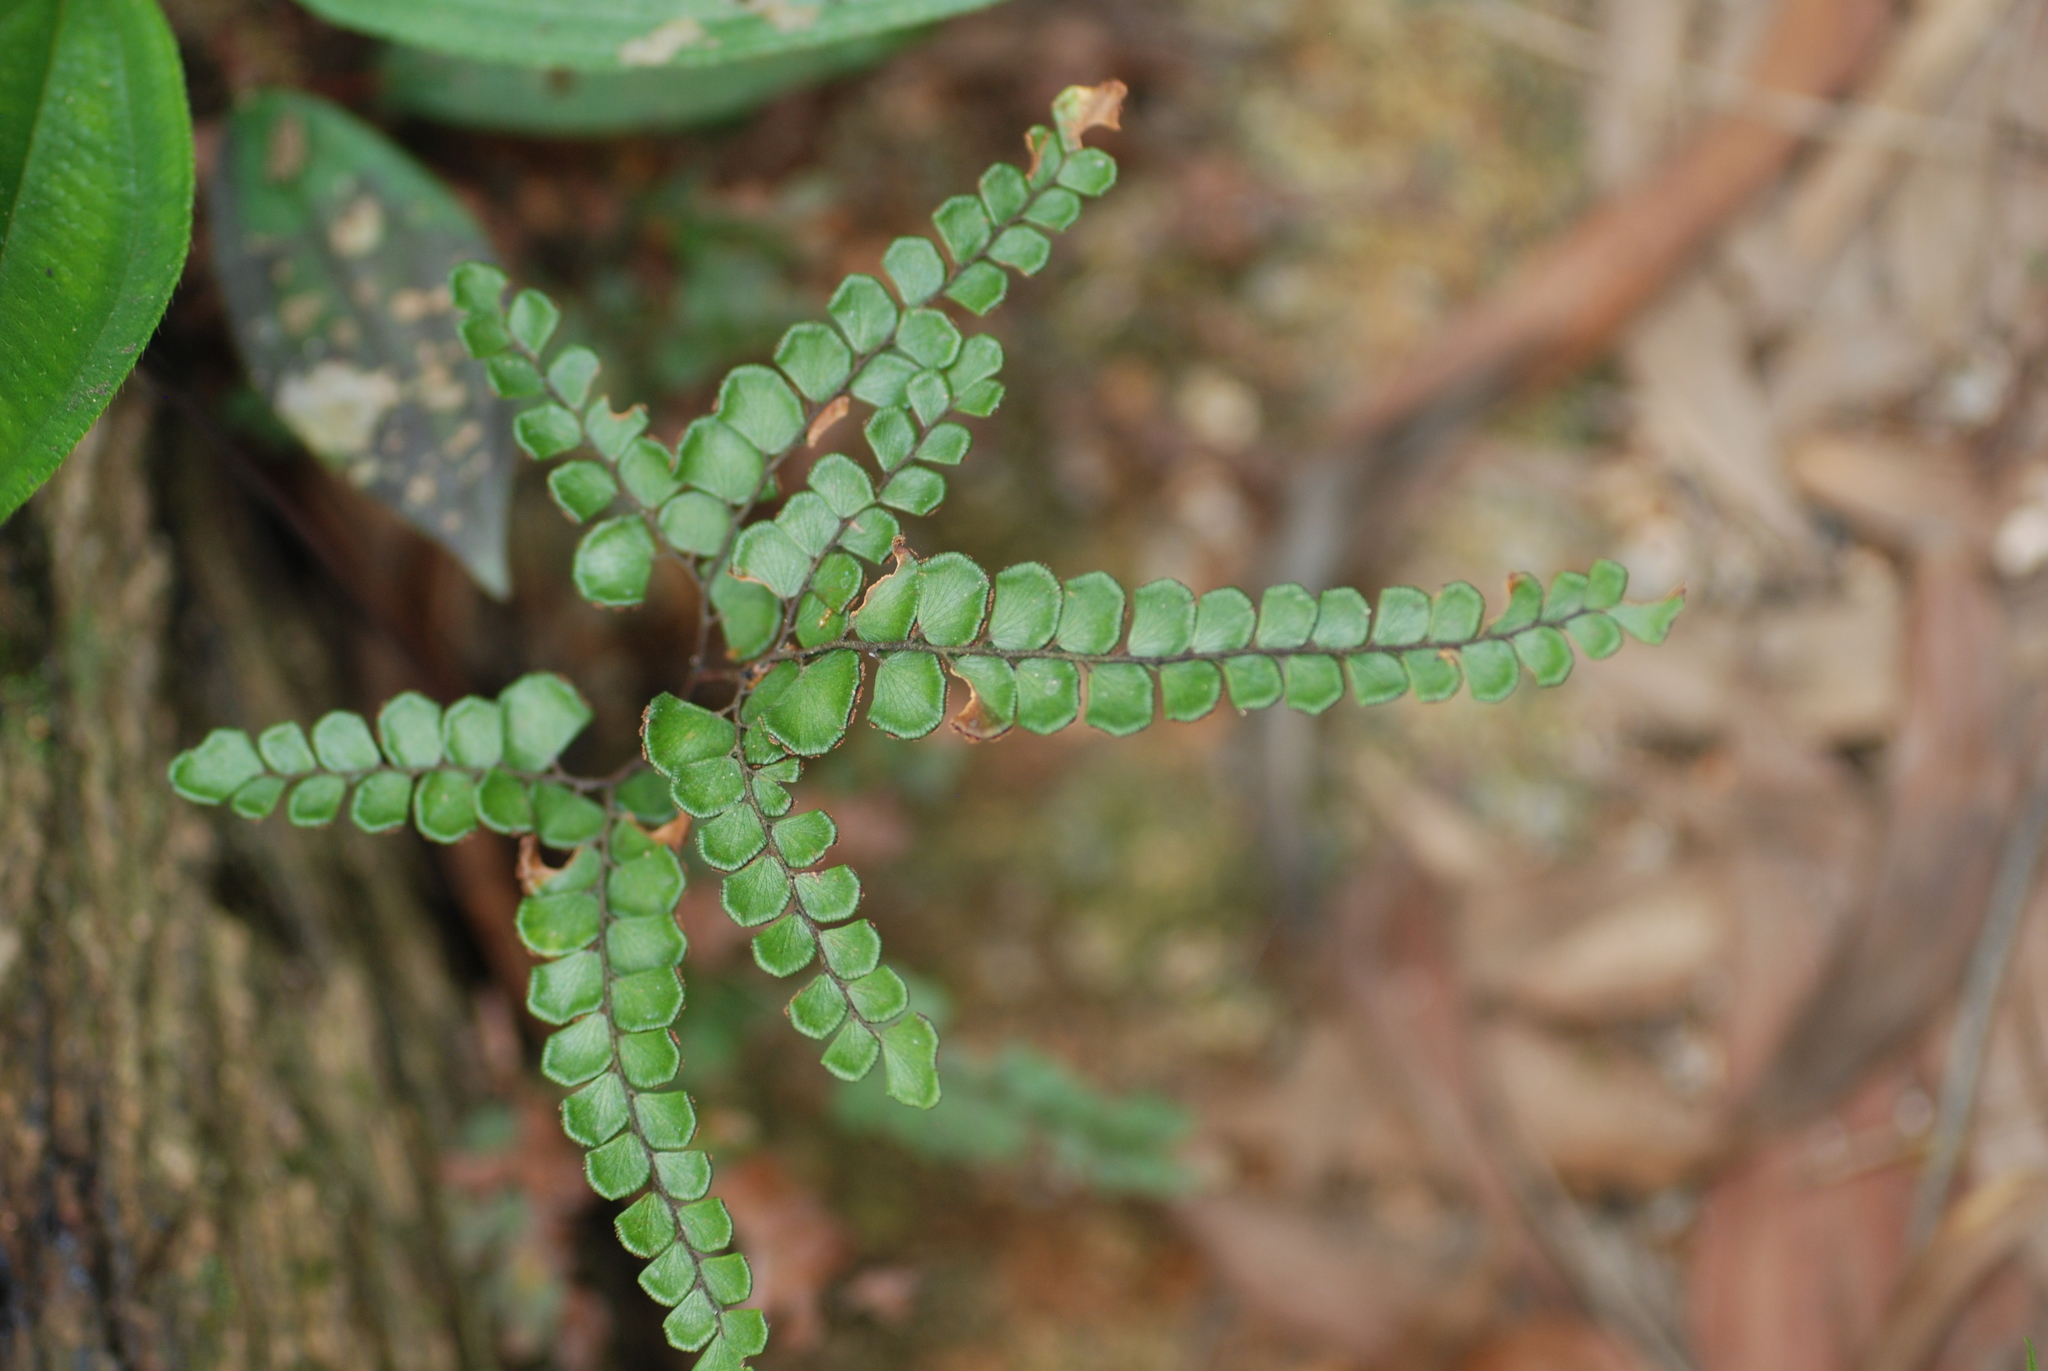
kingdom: Plantae
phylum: Tracheophyta
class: Polypodiopsida
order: Polypodiales
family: Pteridaceae
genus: Adiantum
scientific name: Adiantum flabellulatum
